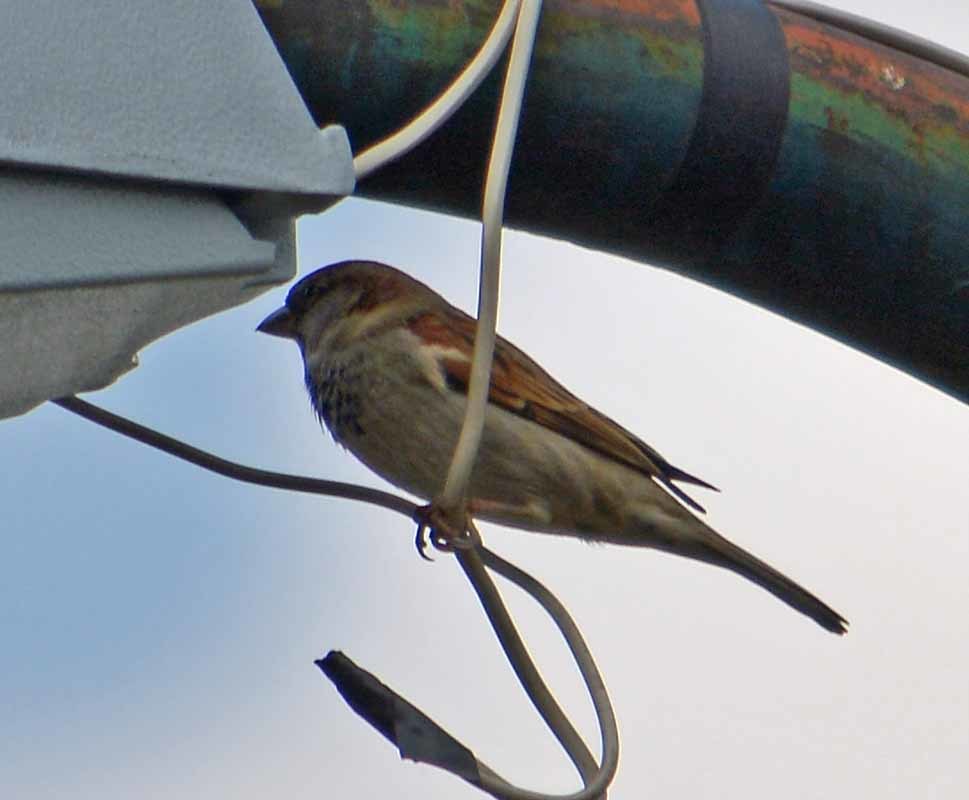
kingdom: Animalia
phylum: Chordata
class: Aves
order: Passeriformes
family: Passeridae
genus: Passer
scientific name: Passer domesticus
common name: House sparrow
